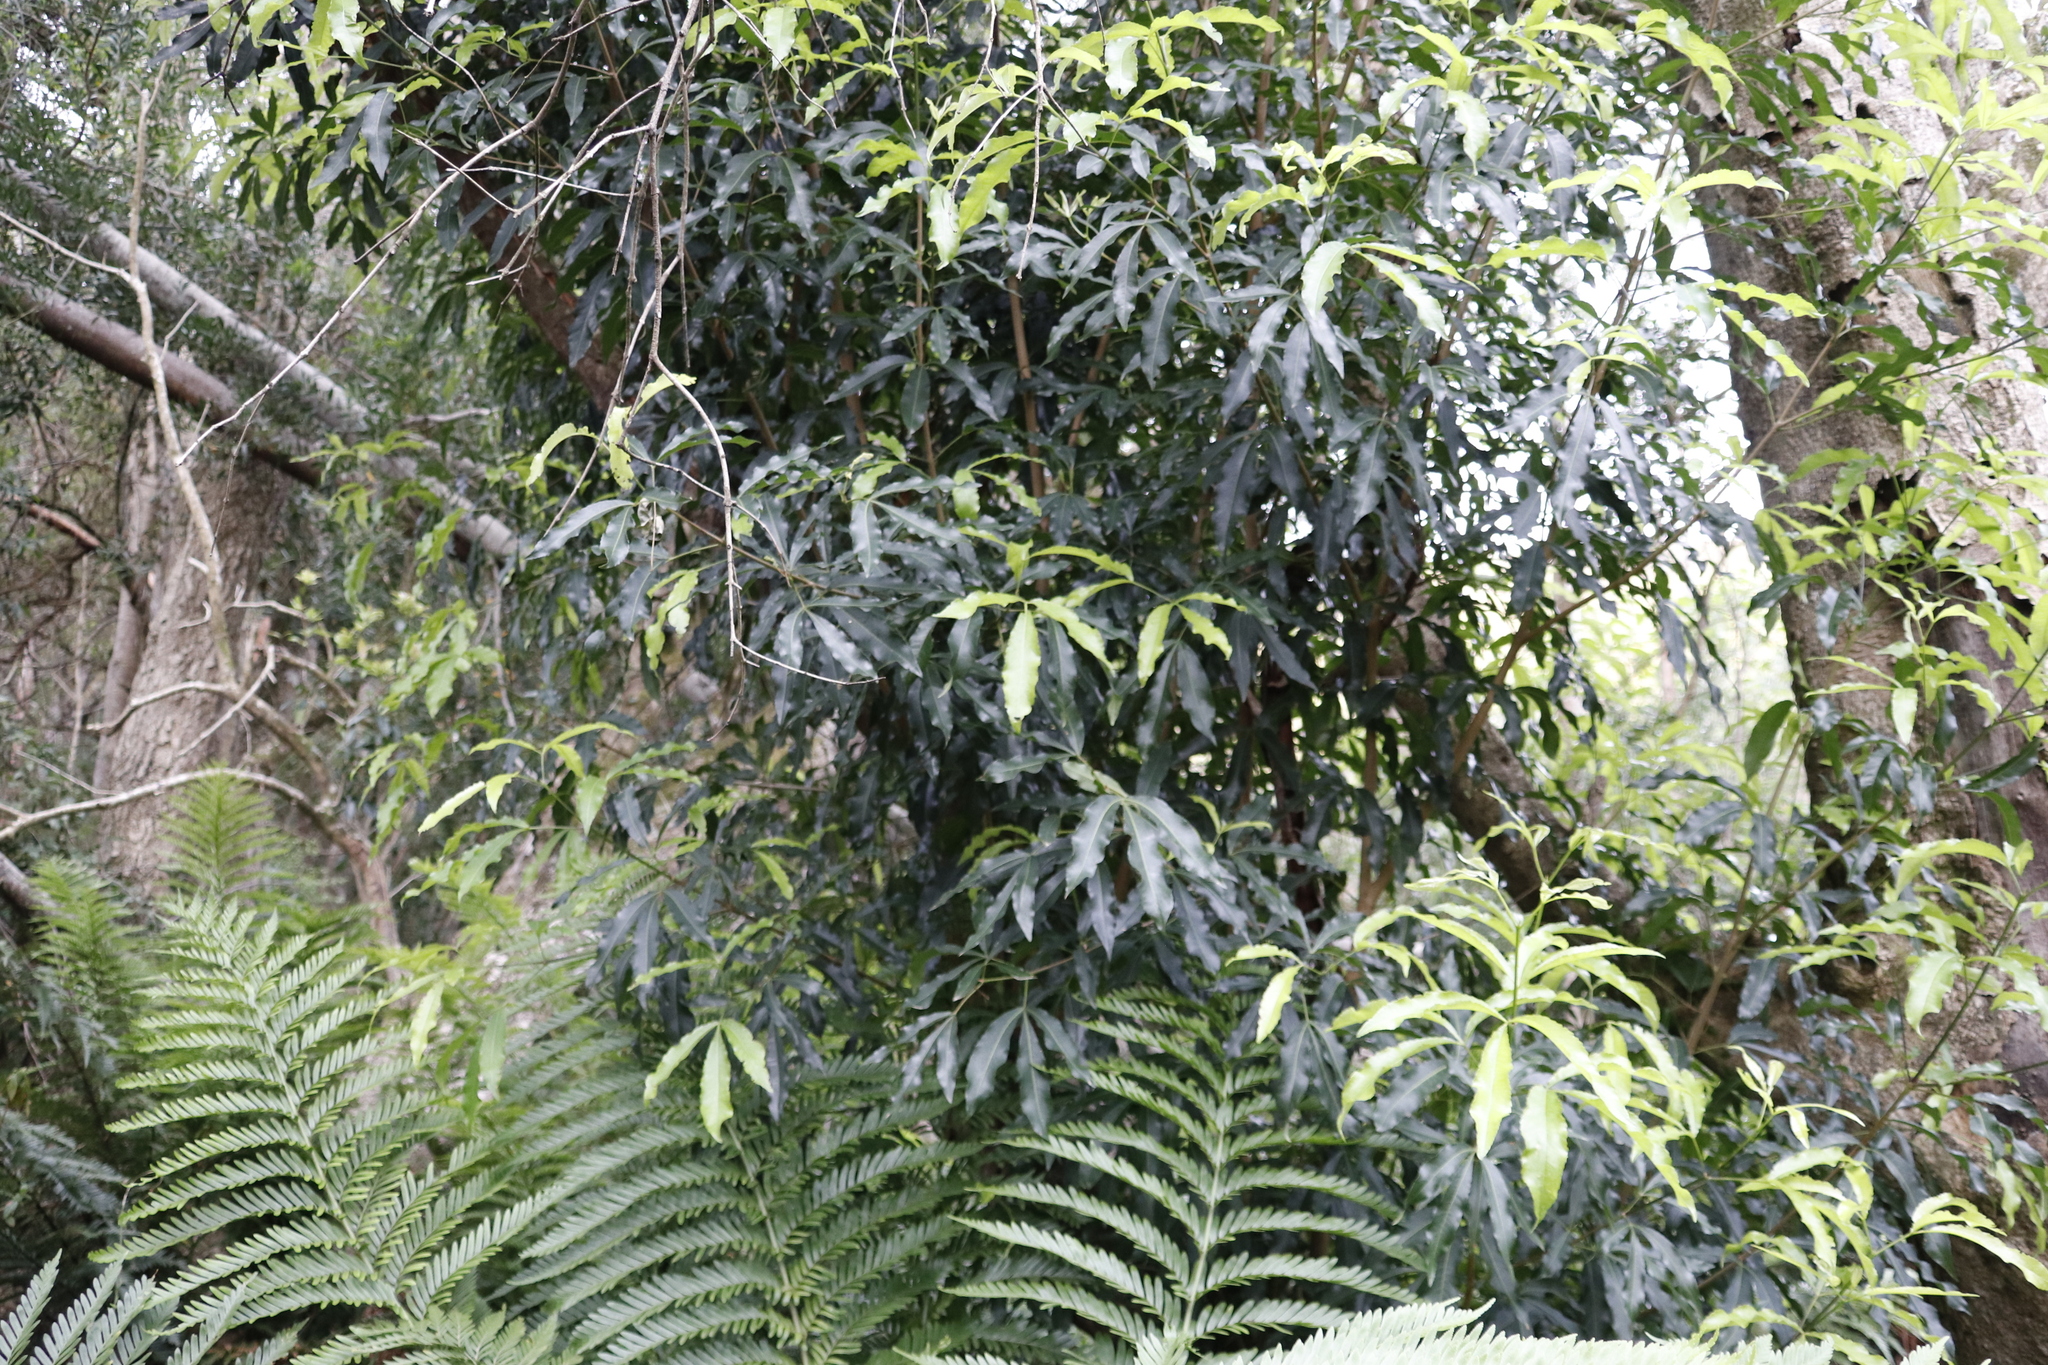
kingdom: Plantae
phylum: Tracheophyta
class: Magnoliopsida
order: Oxalidales
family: Cunoniaceae
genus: Platylophus
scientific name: Platylophus trifoliatus
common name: White alder
